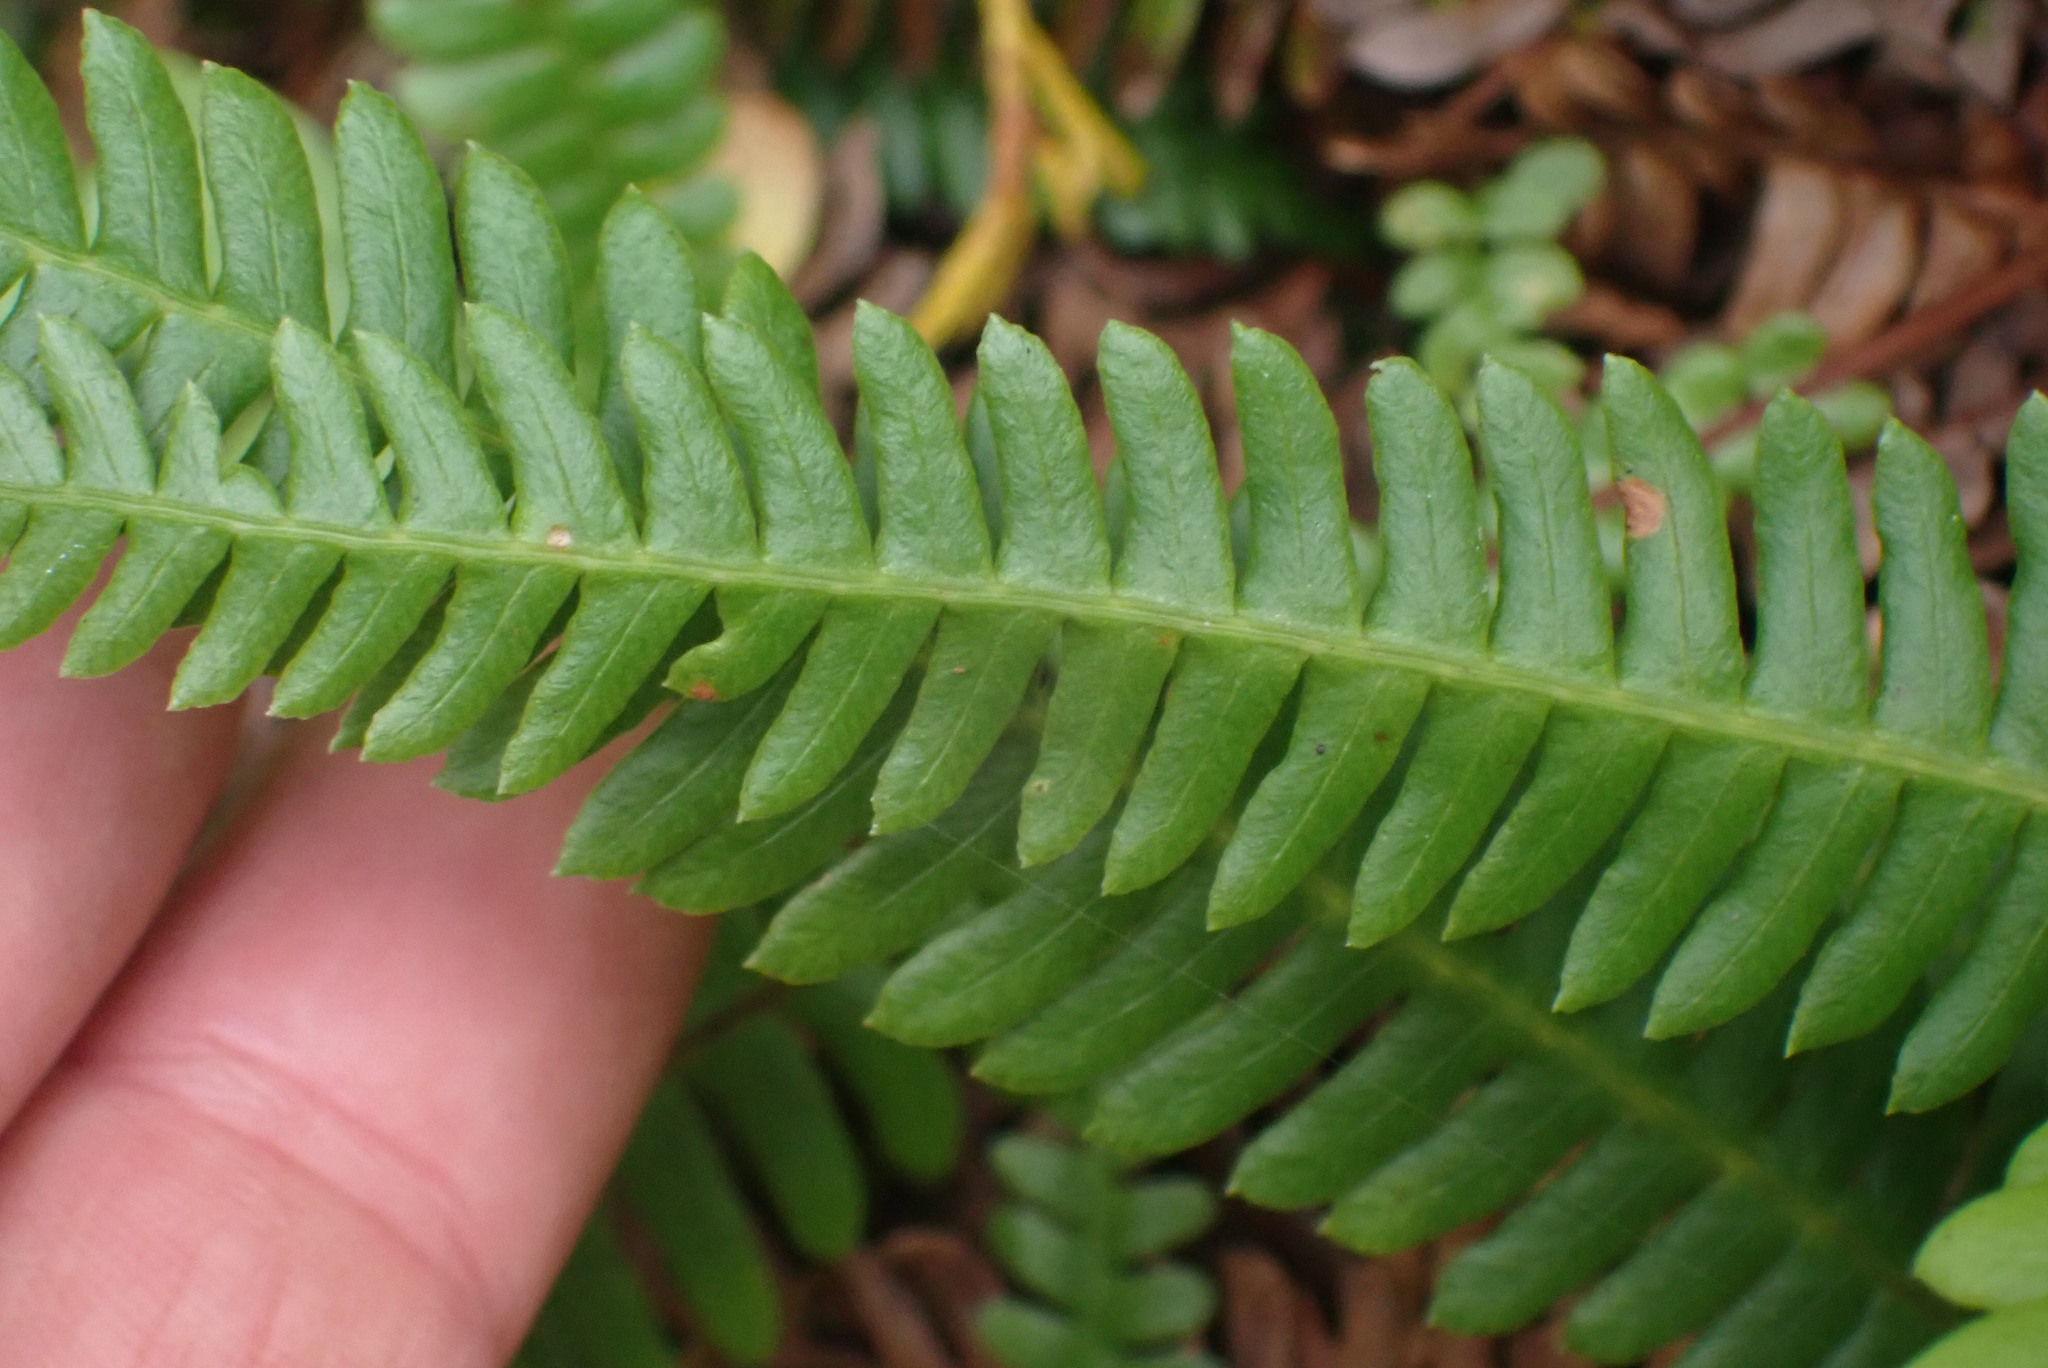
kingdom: Plantae
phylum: Tracheophyta
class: Polypodiopsida
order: Polypodiales
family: Blechnaceae
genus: Struthiopteris
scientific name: Struthiopteris spicant
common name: Deer fern
